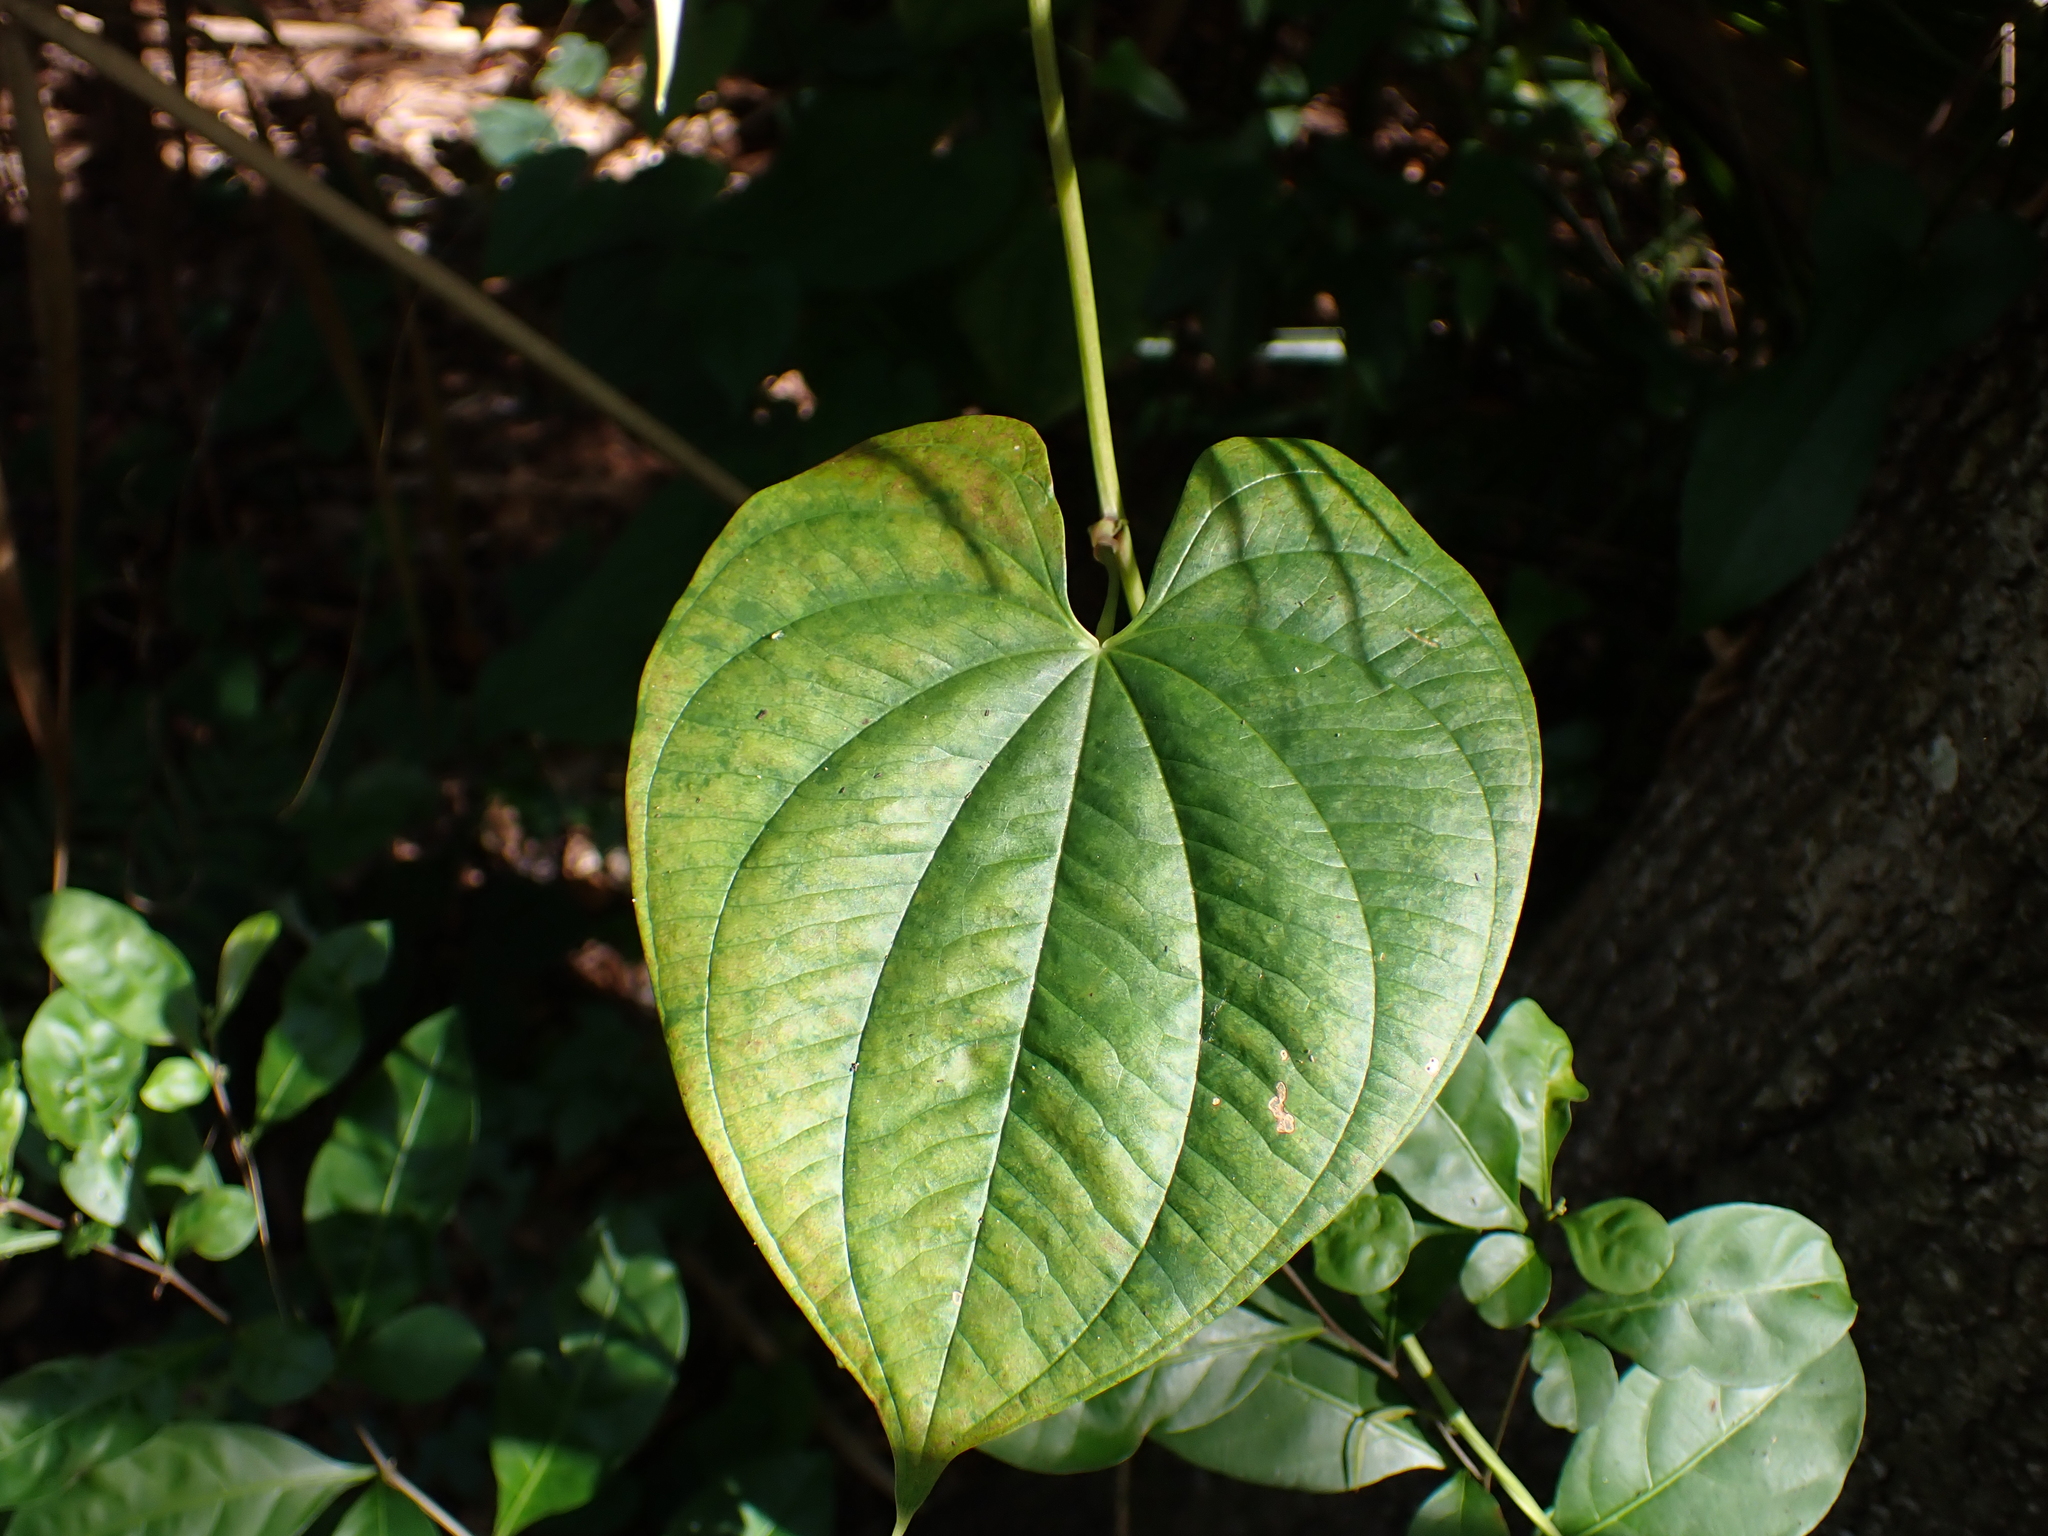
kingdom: Plantae
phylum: Tracheophyta
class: Liliopsida
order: Dioscoreales
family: Dioscoreaceae
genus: Dioscorea
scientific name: Dioscorea bulbifera
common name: Air yam
